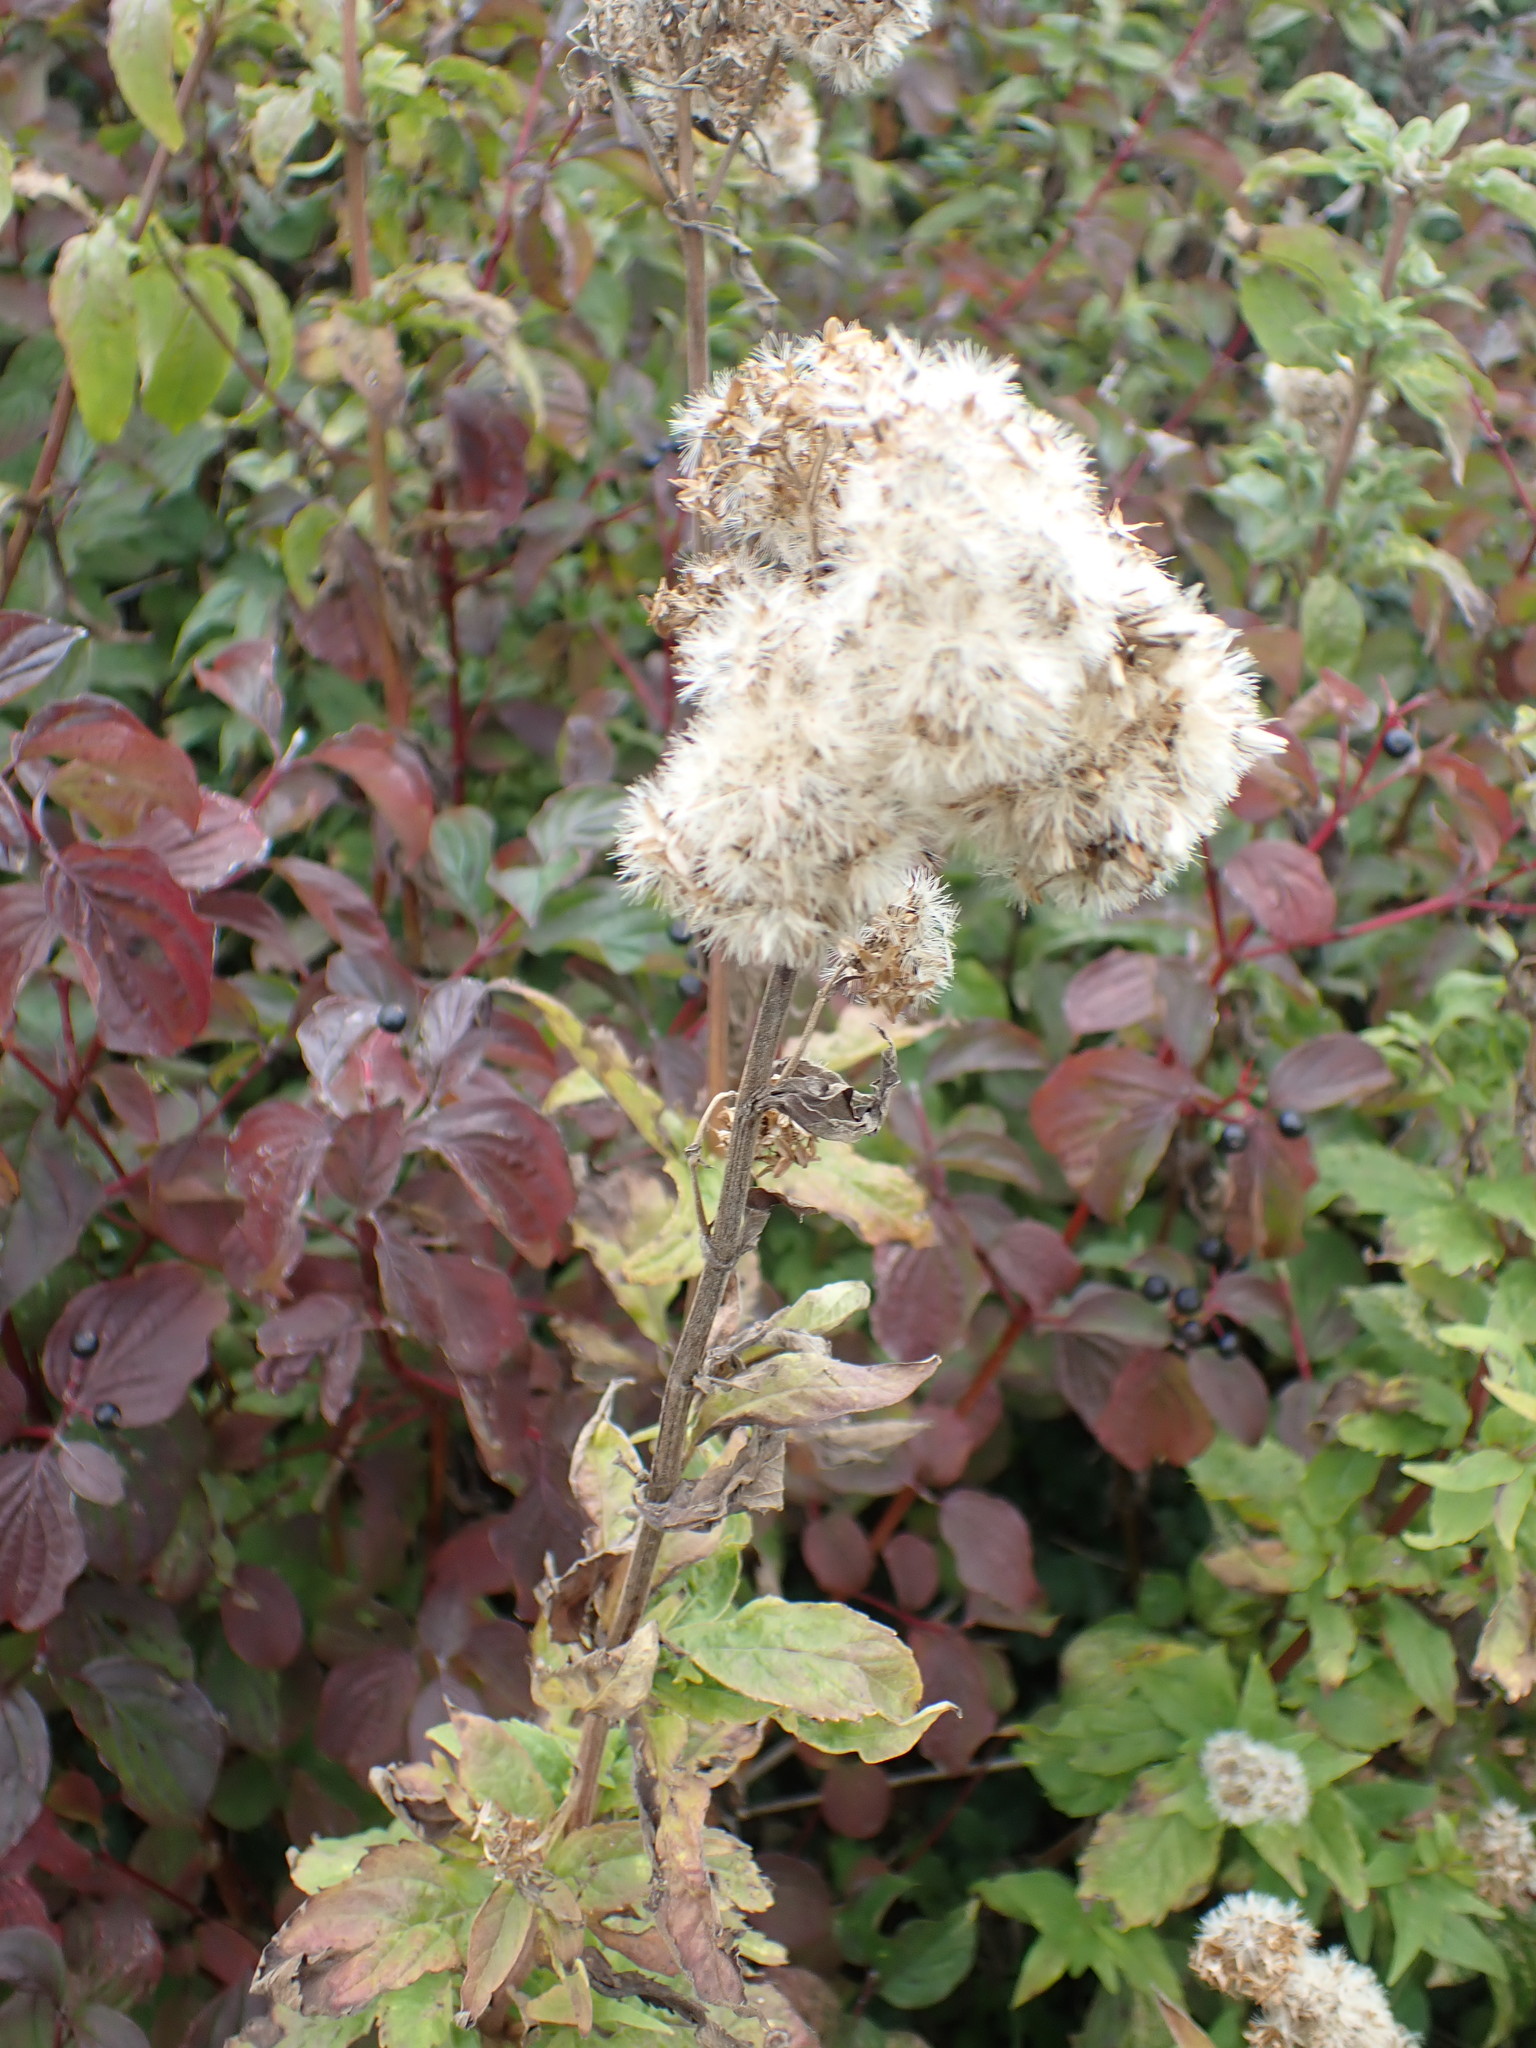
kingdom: Plantae
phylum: Tracheophyta
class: Magnoliopsida
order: Asterales
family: Asteraceae
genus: Eupatorium
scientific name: Eupatorium cannabinum
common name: Hemp-agrimony
